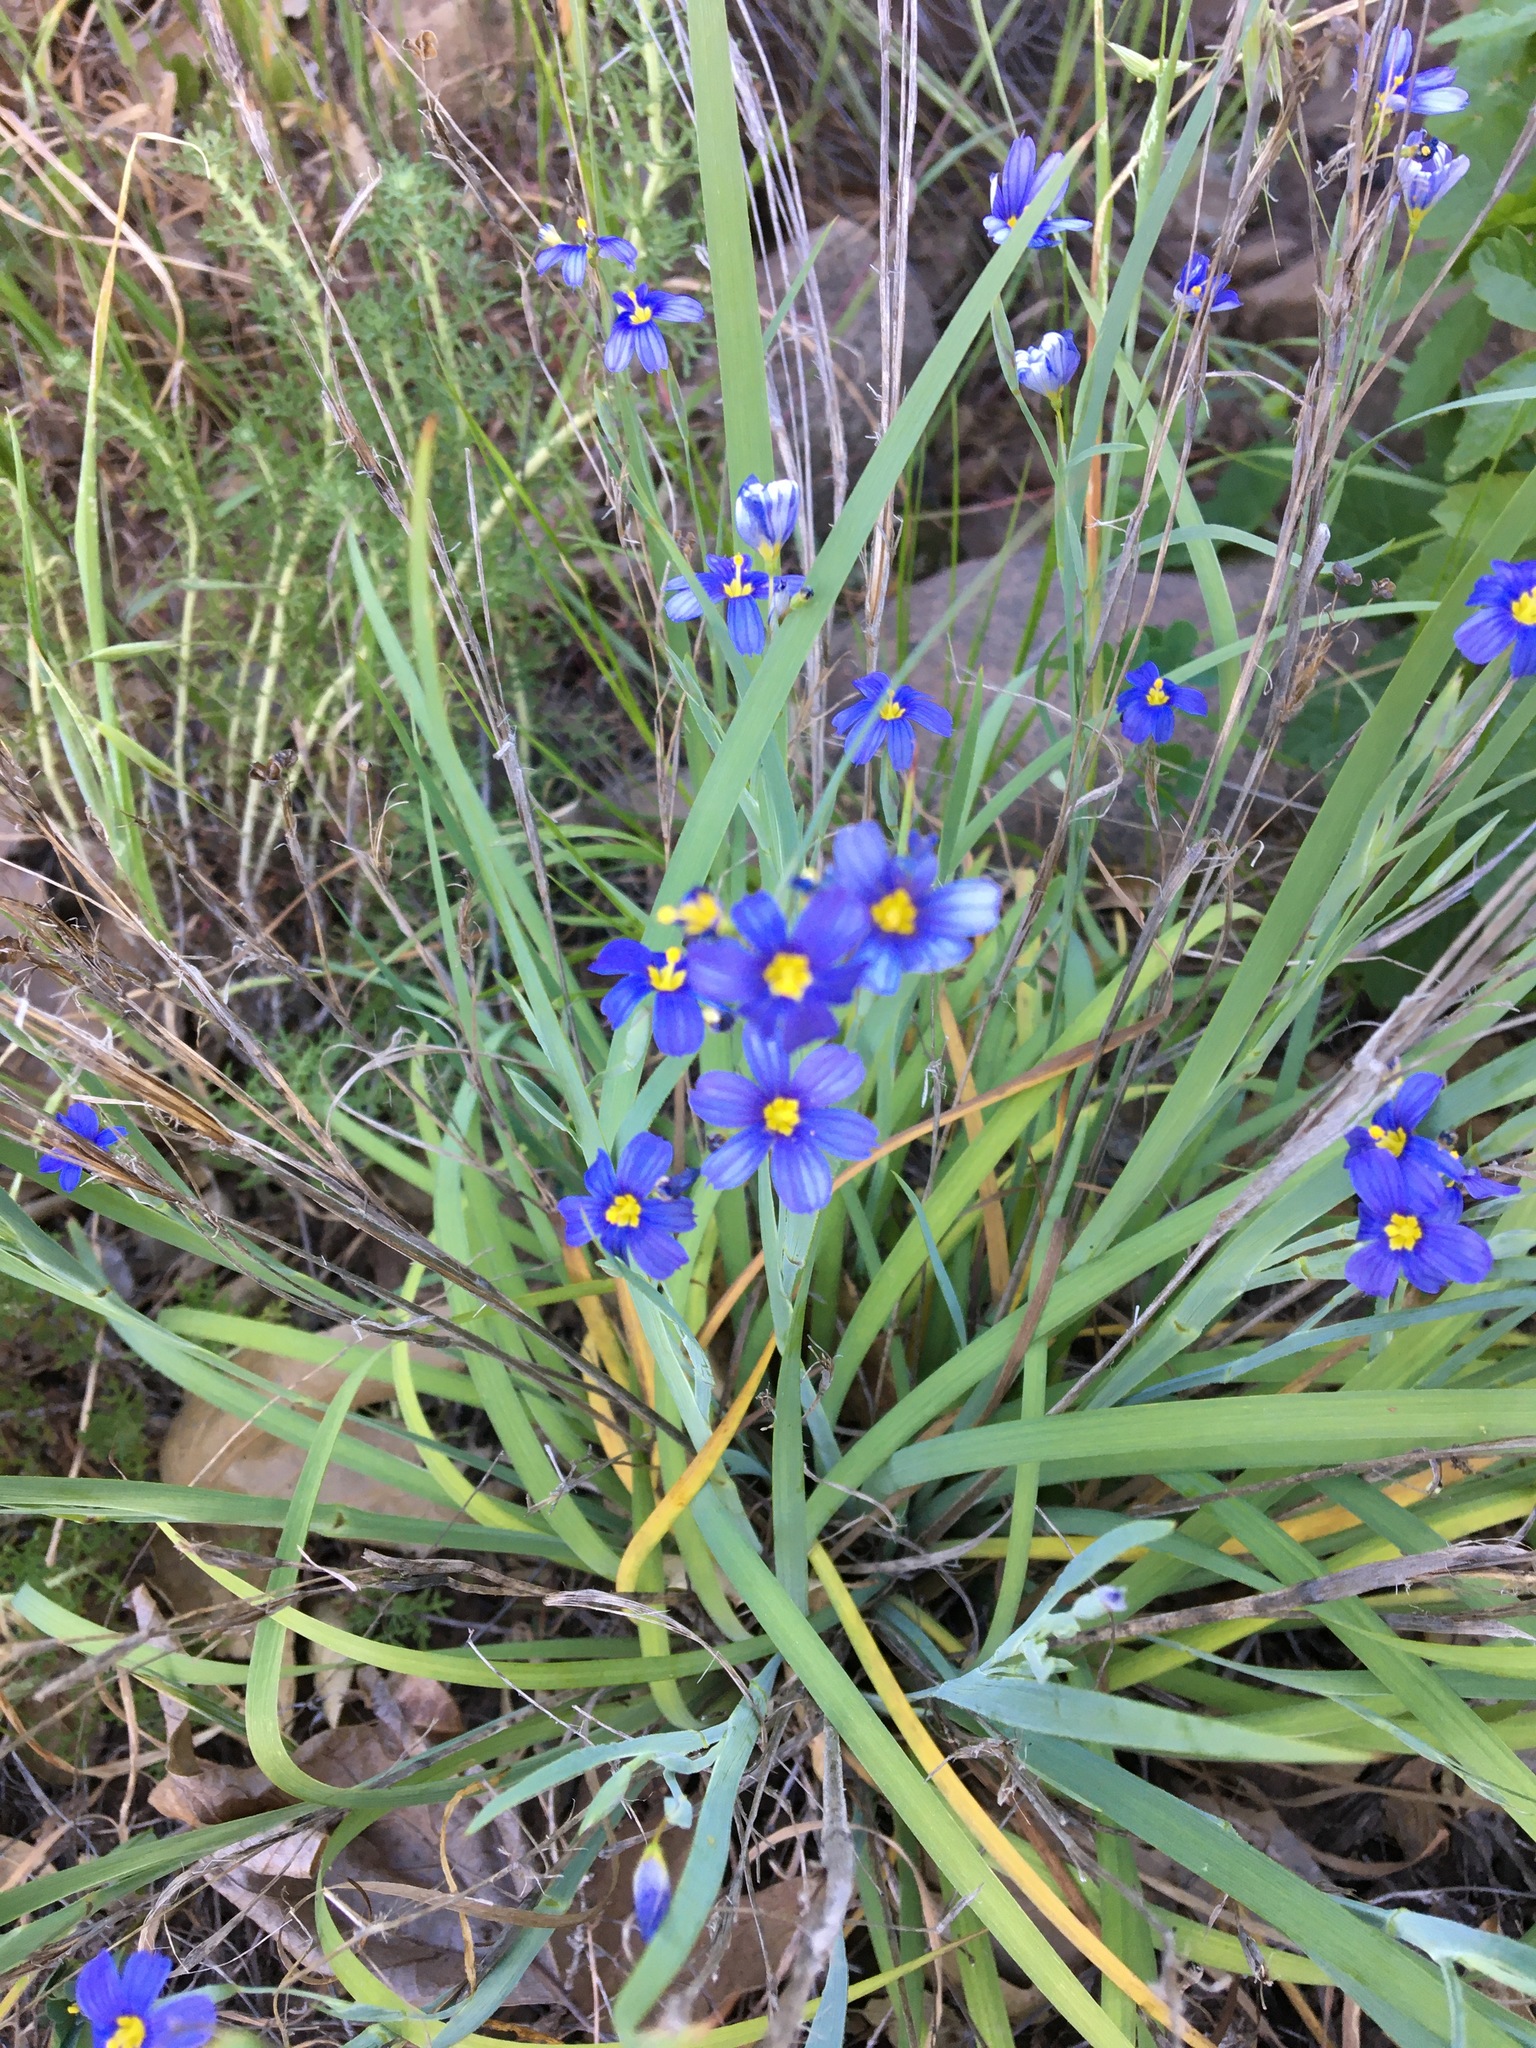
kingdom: Plantae
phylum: Tracheophyta
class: Liliopsida
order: Asparagales
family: Iridaceae
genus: Sisyrinchium
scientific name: Sisyrinchium bellum
